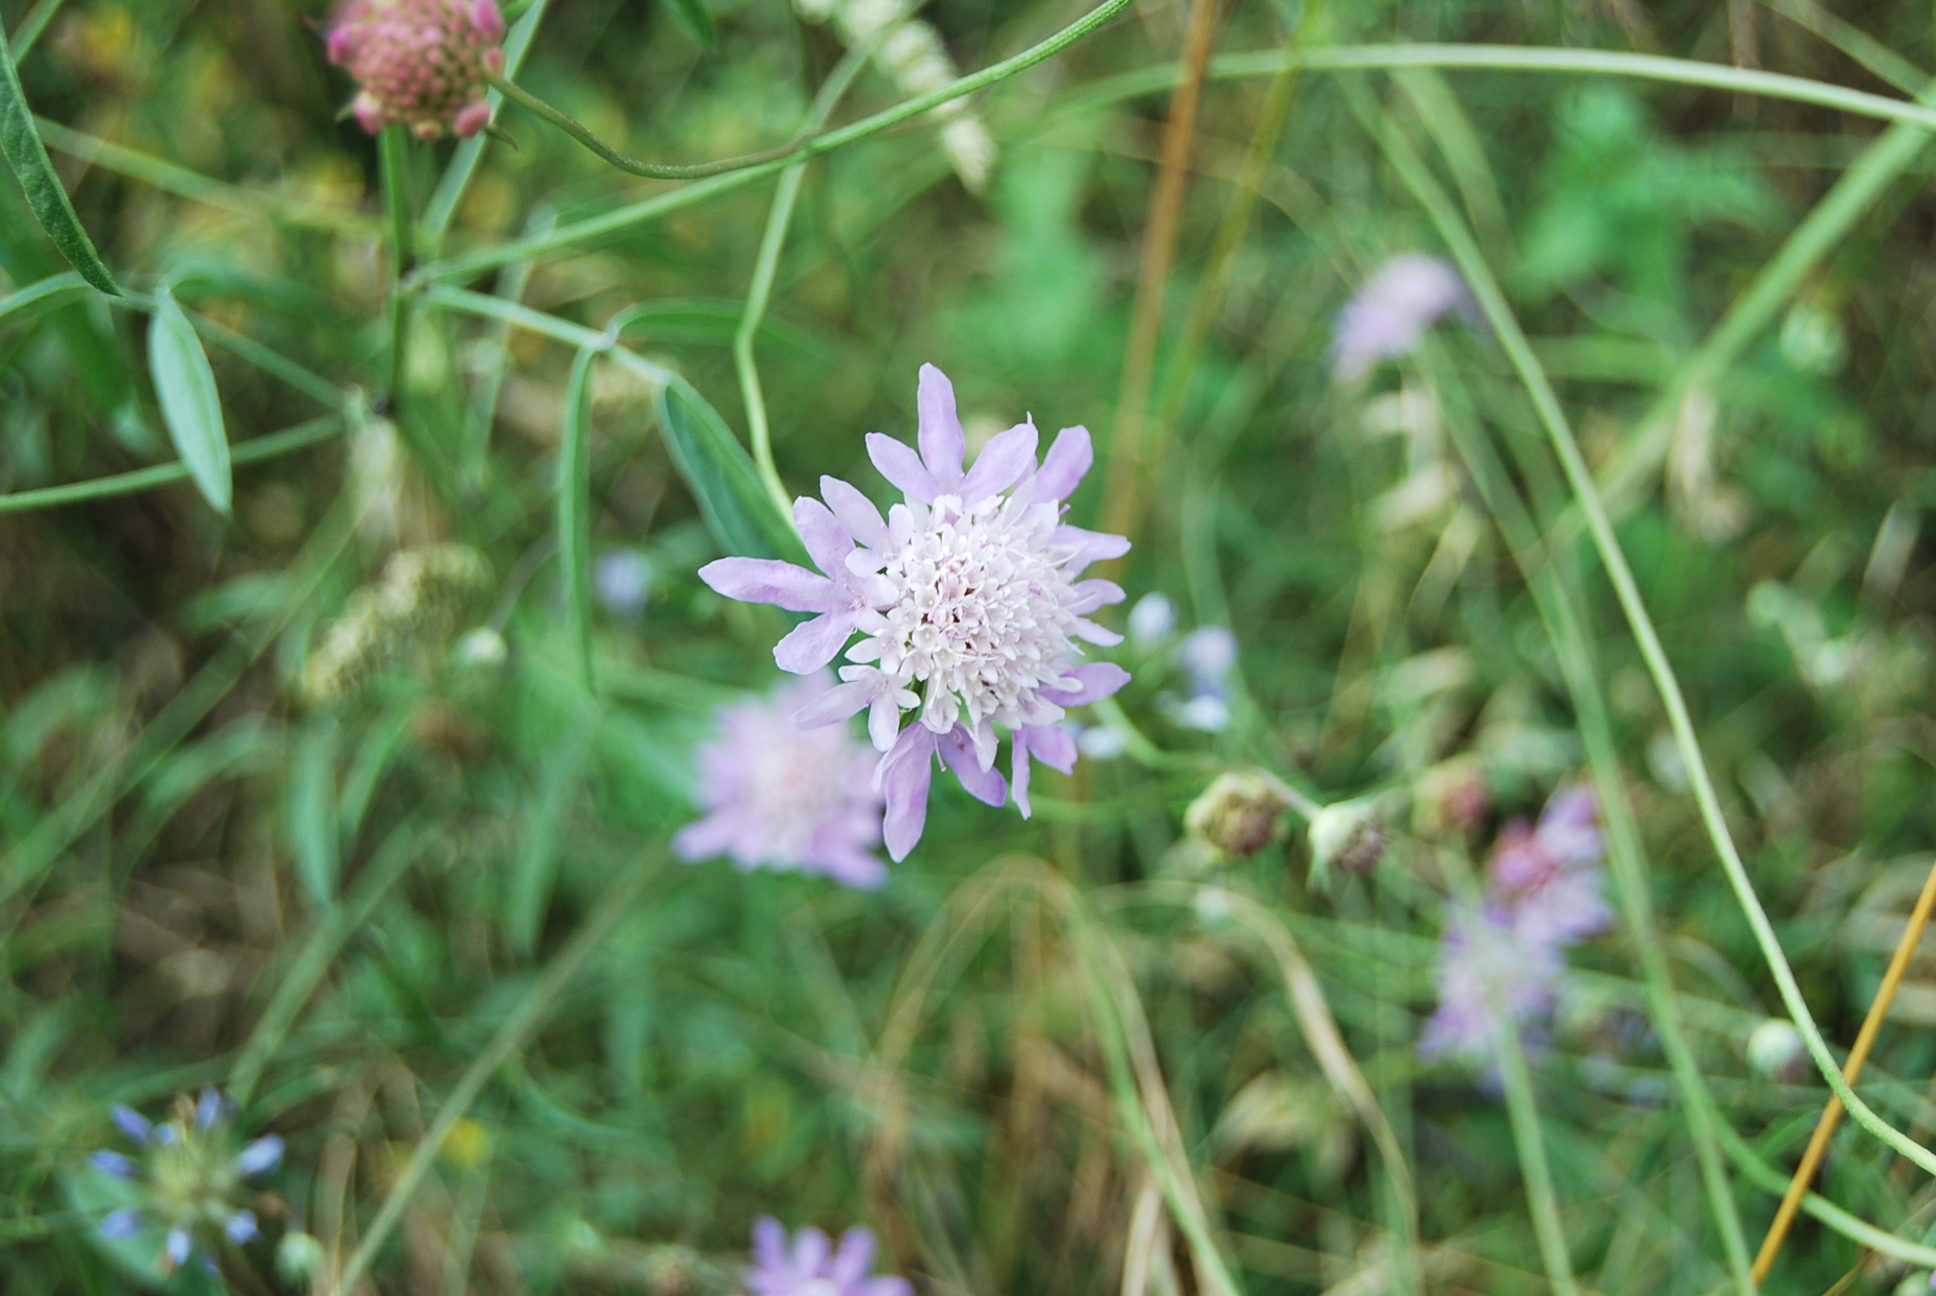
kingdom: Plantae
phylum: Tracheophyta
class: Magnoliopsida
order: Dipsacales
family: Caprifoliaceae
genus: Sixalix
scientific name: Sixalix atropurpurea
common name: Sweet scabious
